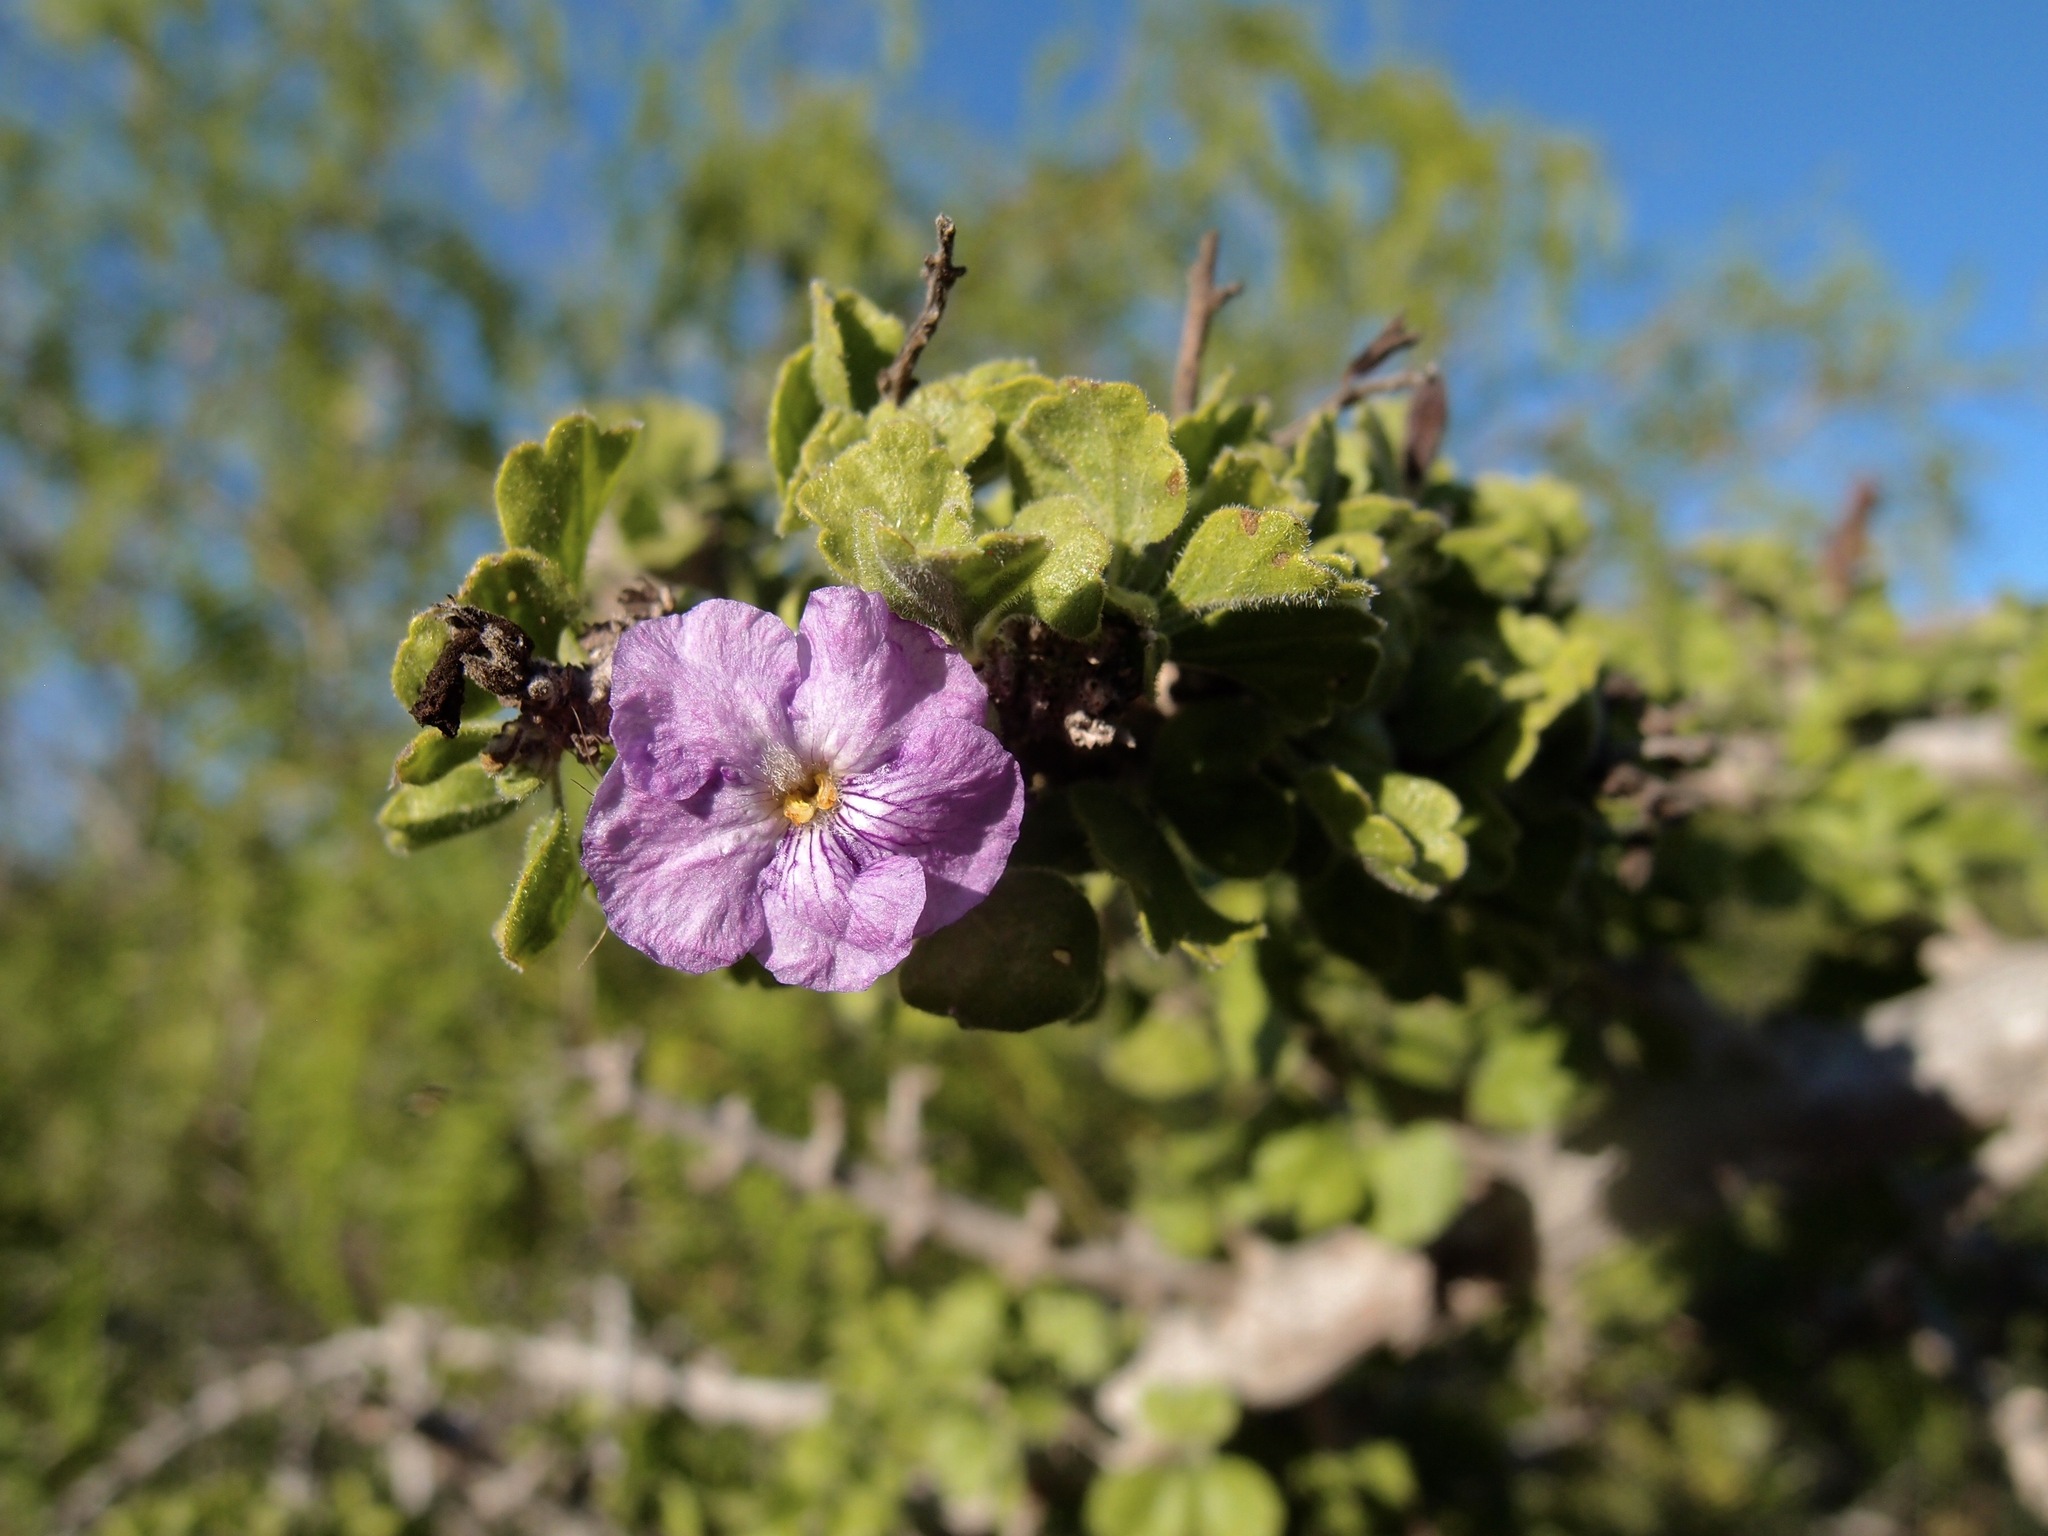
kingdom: Plantae
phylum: Tracheophyta
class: Magnoliopsida
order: Lamiales
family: Verbenaceae
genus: Citharexylum
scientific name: Citharexylum flabellifolium
